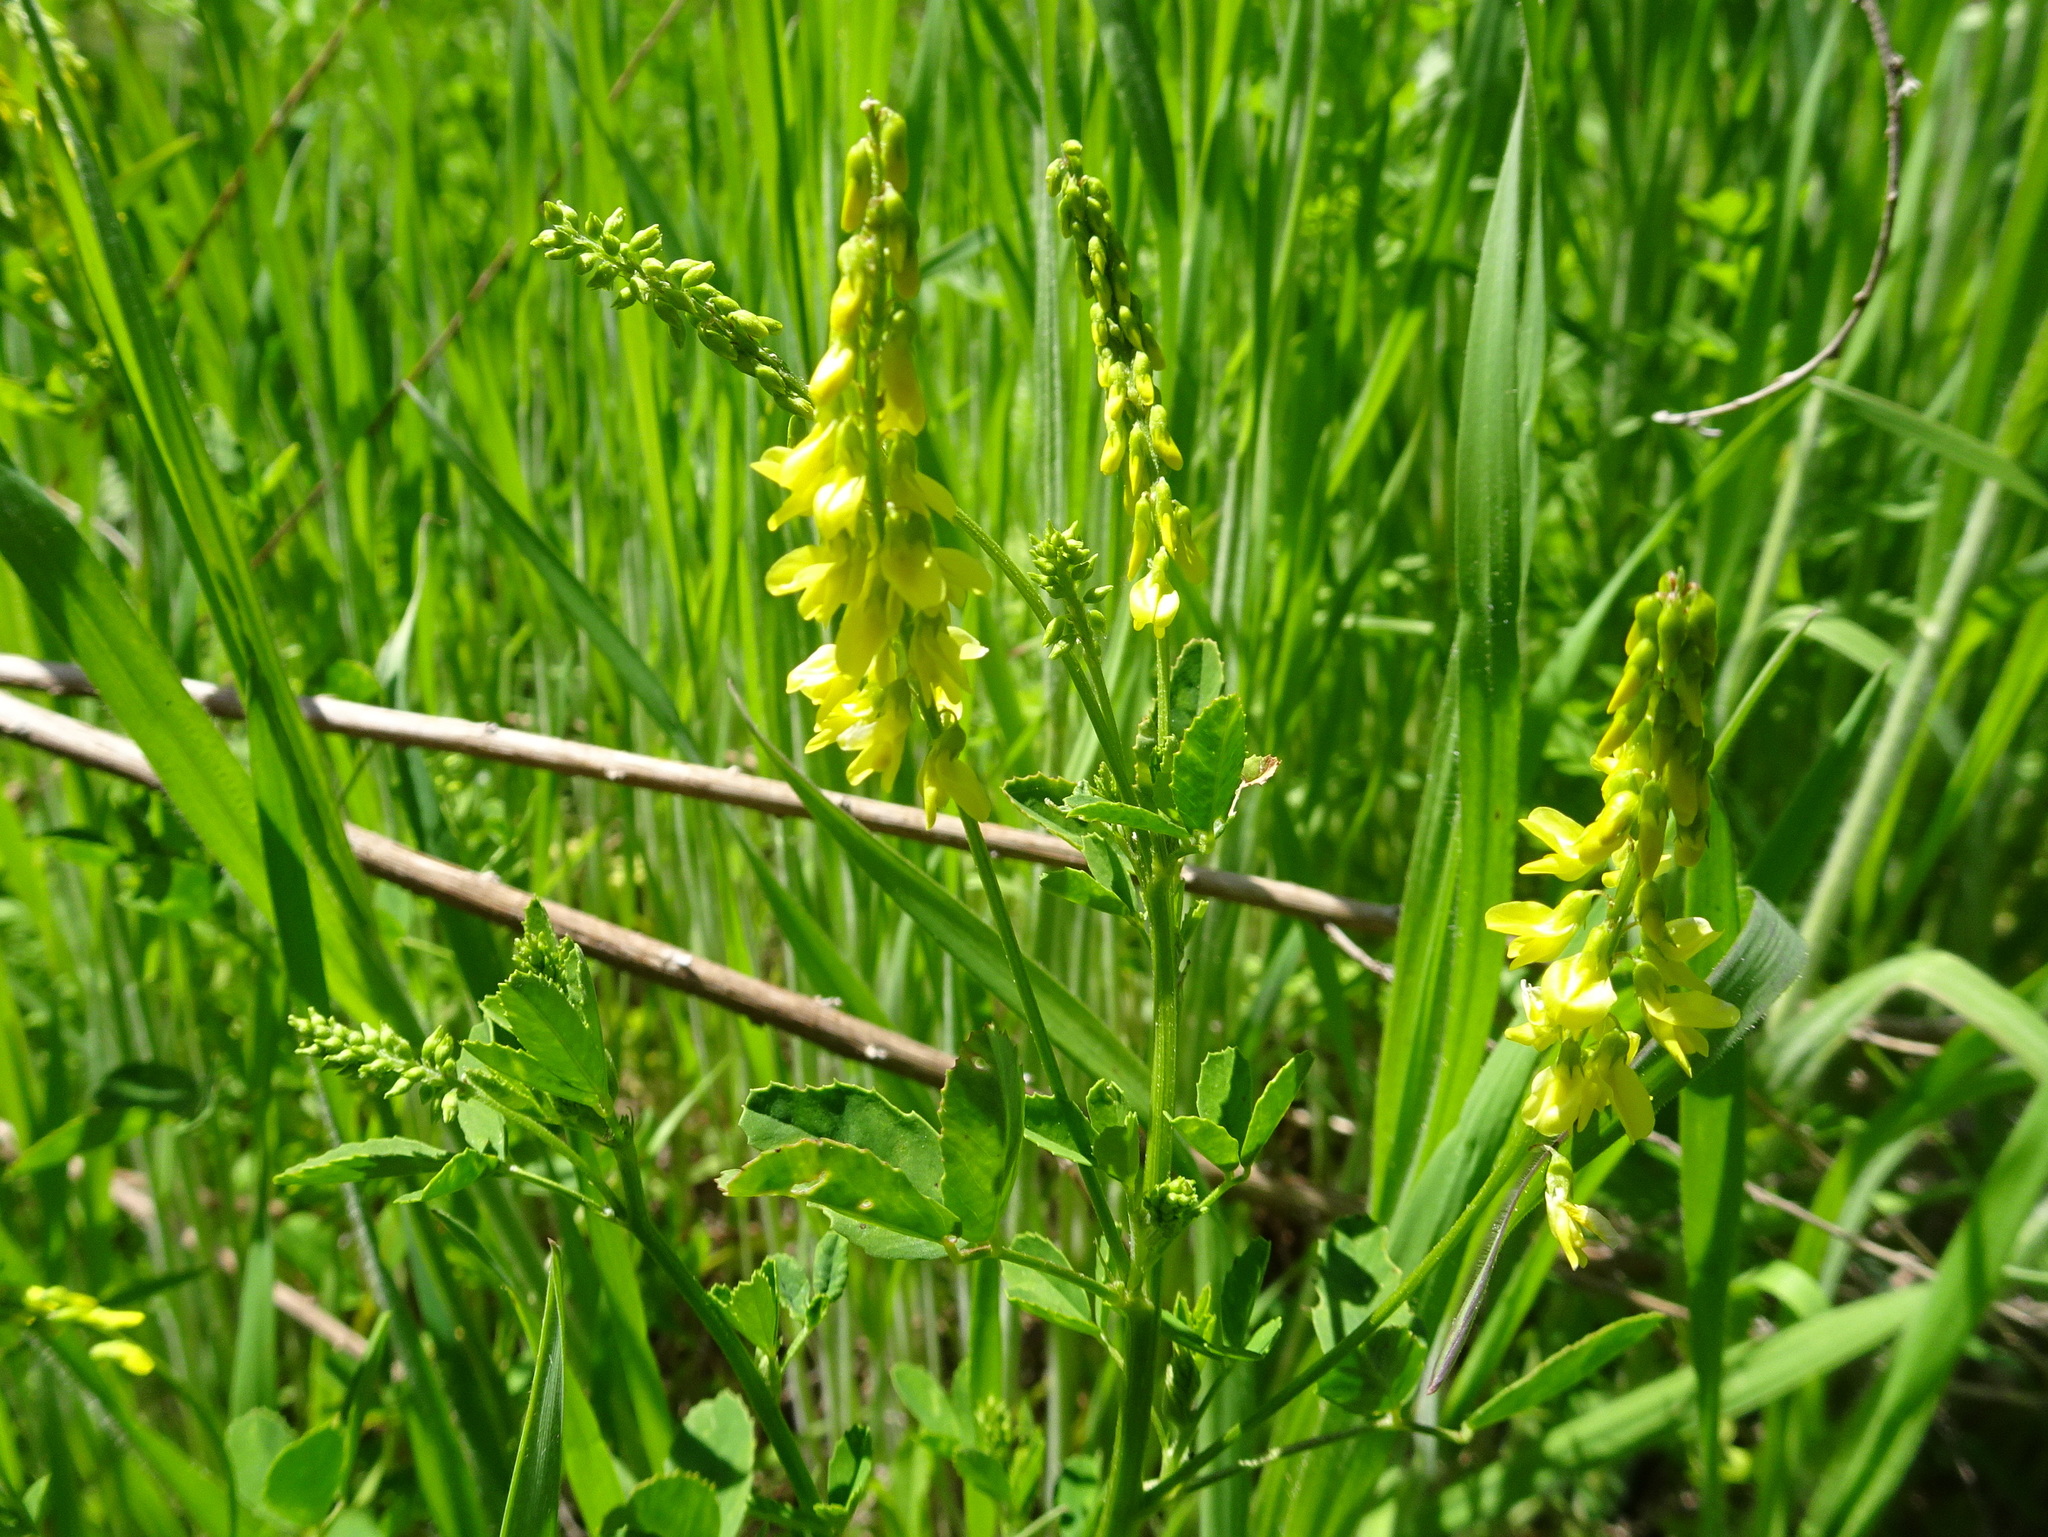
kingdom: Plantae
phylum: Tracheophyta
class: Magnoliopsida
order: Fabales
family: Fabaceae
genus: Melilotus
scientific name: Melilotus officinalis
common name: Sweetclover
